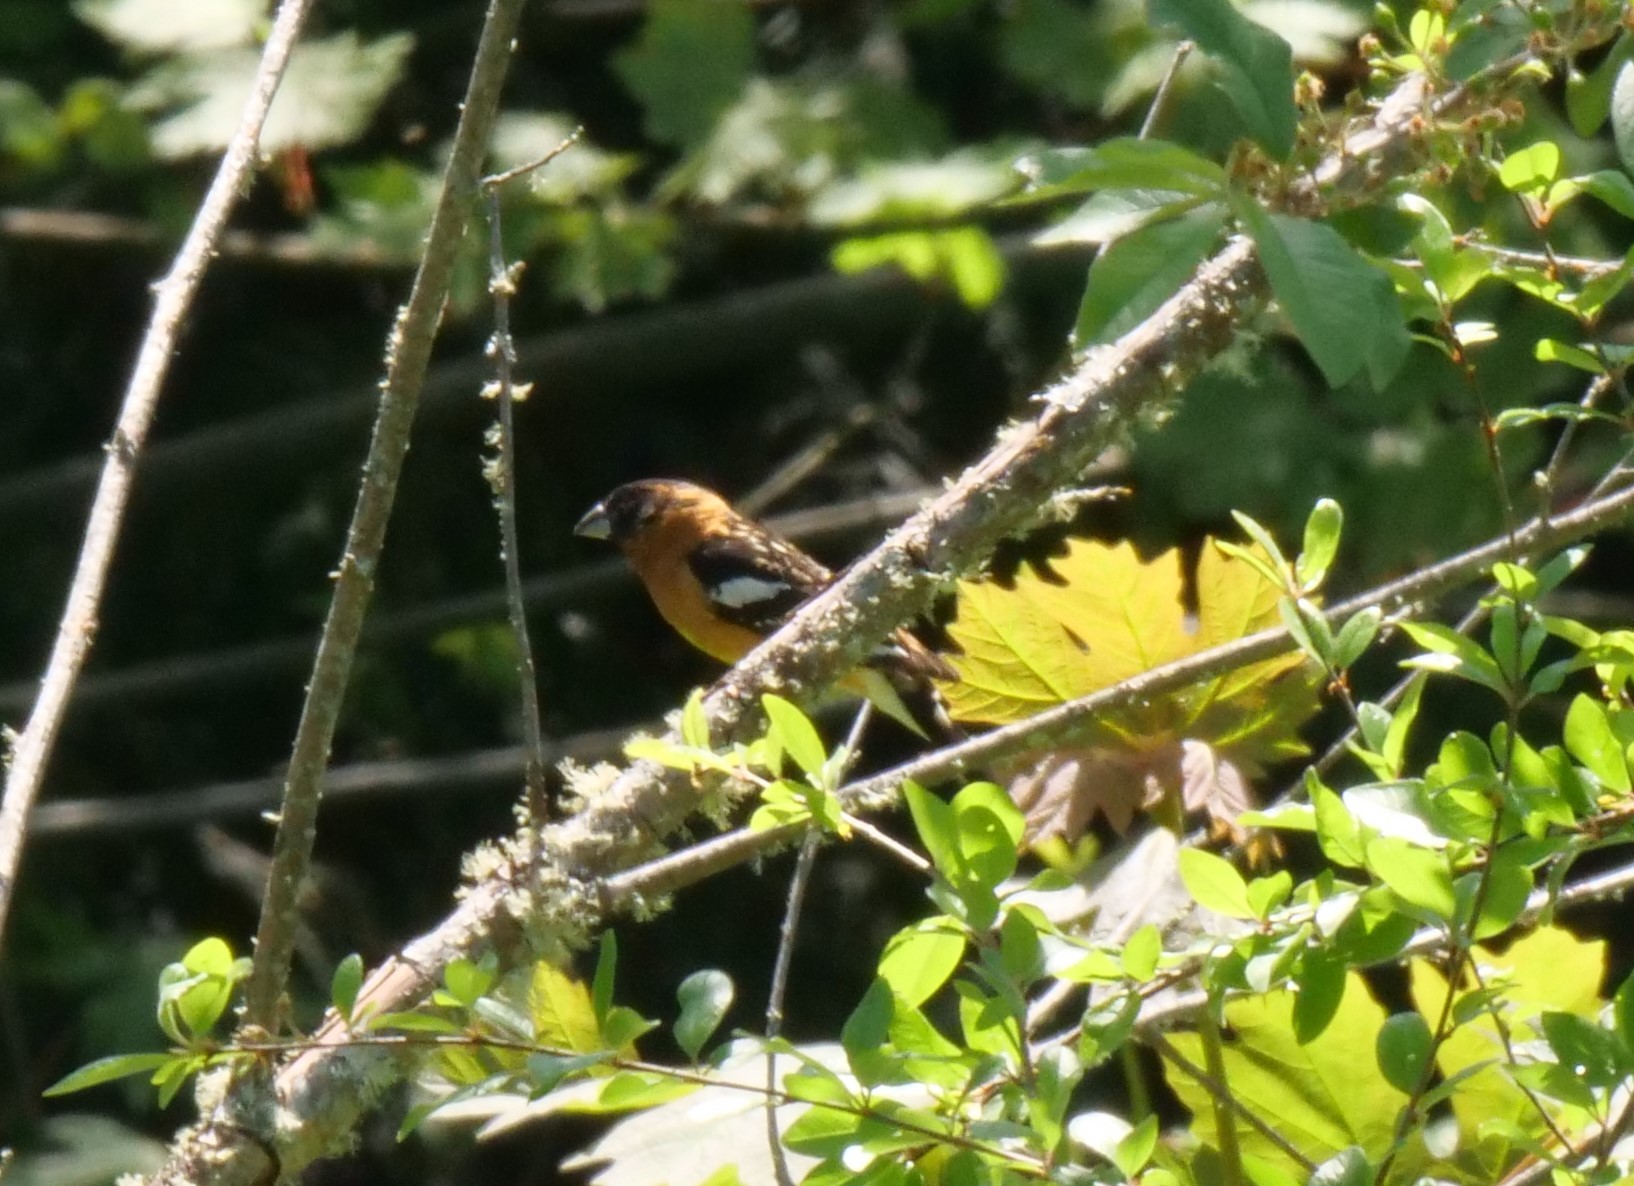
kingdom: Animalia
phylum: Chordata
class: Aves
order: Passeriformes
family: Cardinalidae
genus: Pheucticus
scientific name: Pheucticus melanocephalus
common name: Black-headed grosbeak
